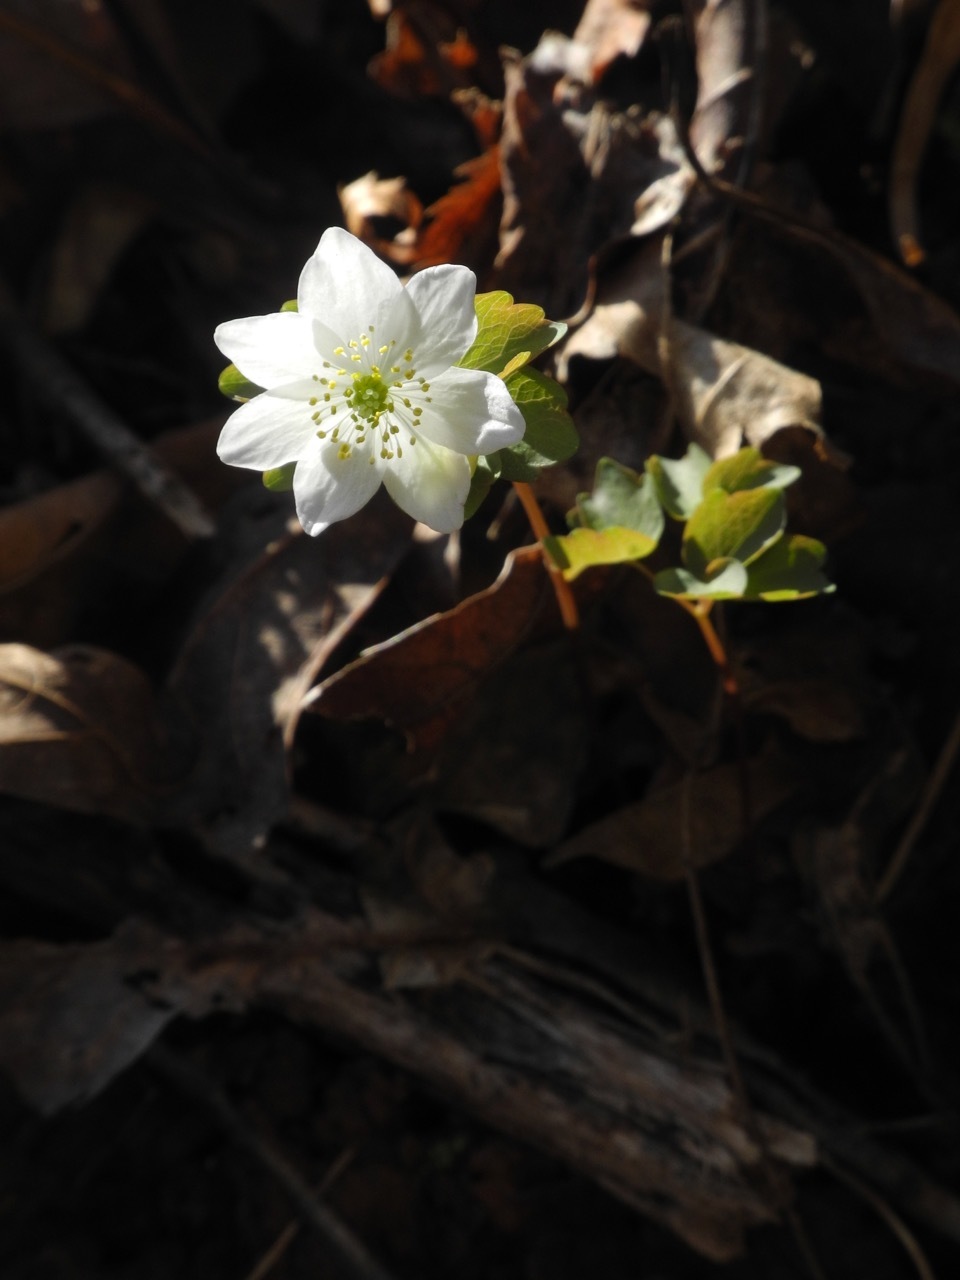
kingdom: Plantae
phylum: Tracheophyta
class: Magnoliopsida
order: Ranunculales
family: Ranunculaceae
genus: Thalictrum
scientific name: Thalictrum thalictroides
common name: Rue-anemone
